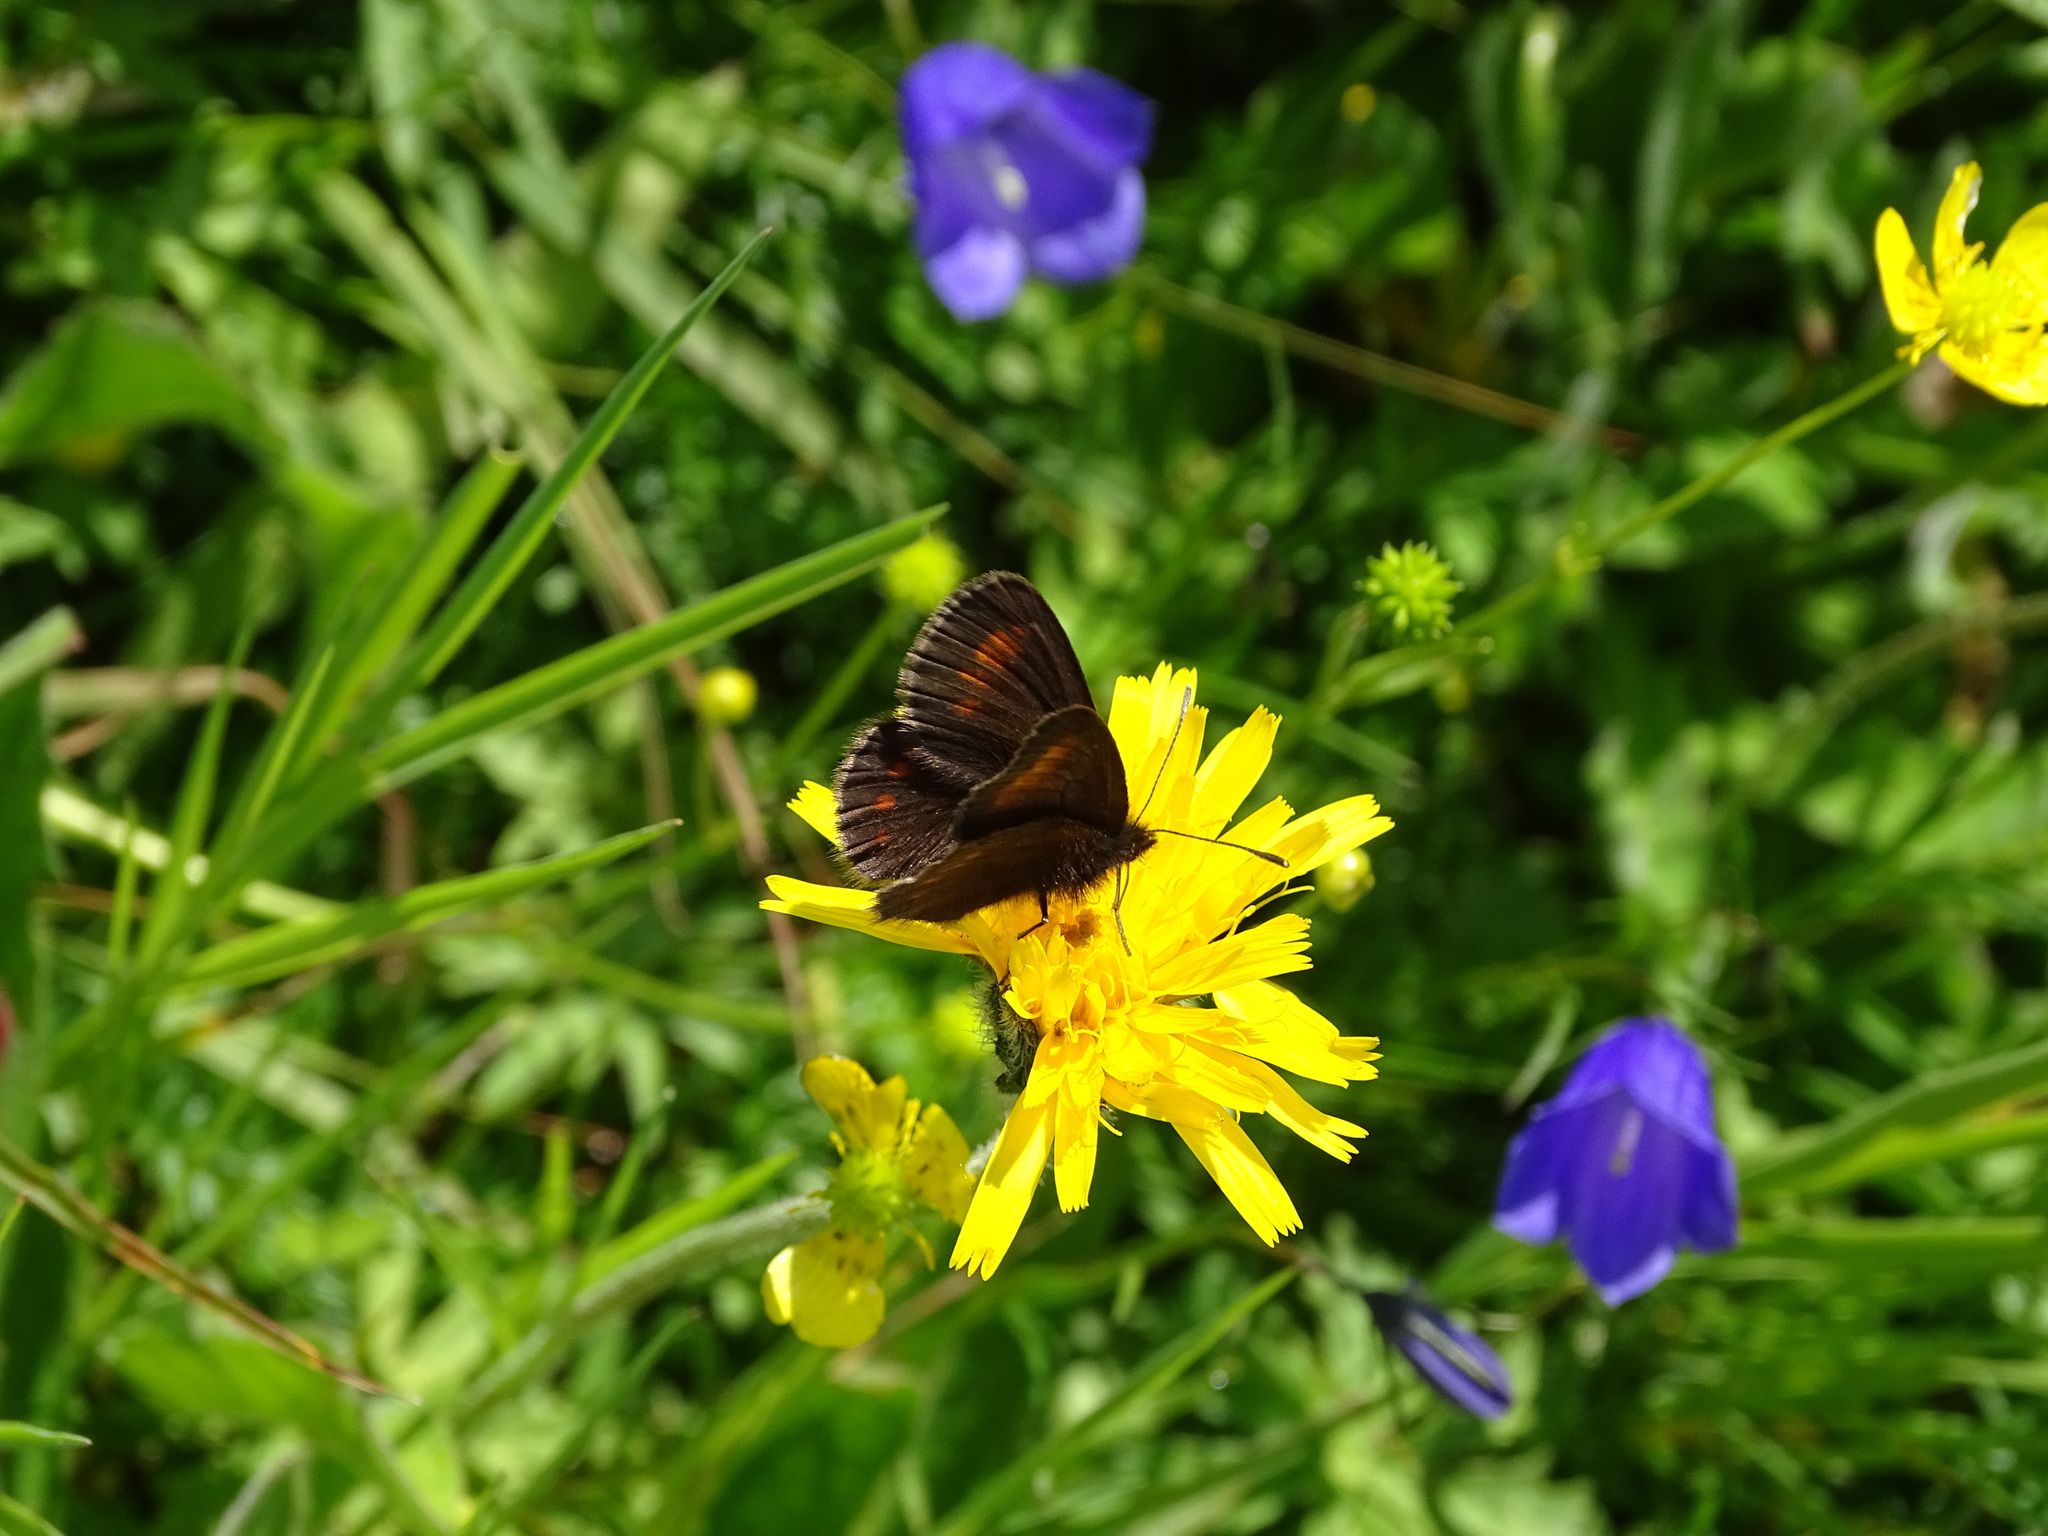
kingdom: Animalia
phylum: Arthropoda
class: Insecta
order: Lepidoptera
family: Nymphalidae
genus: Erebia
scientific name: Erebia pharte
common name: Blind ringlet
